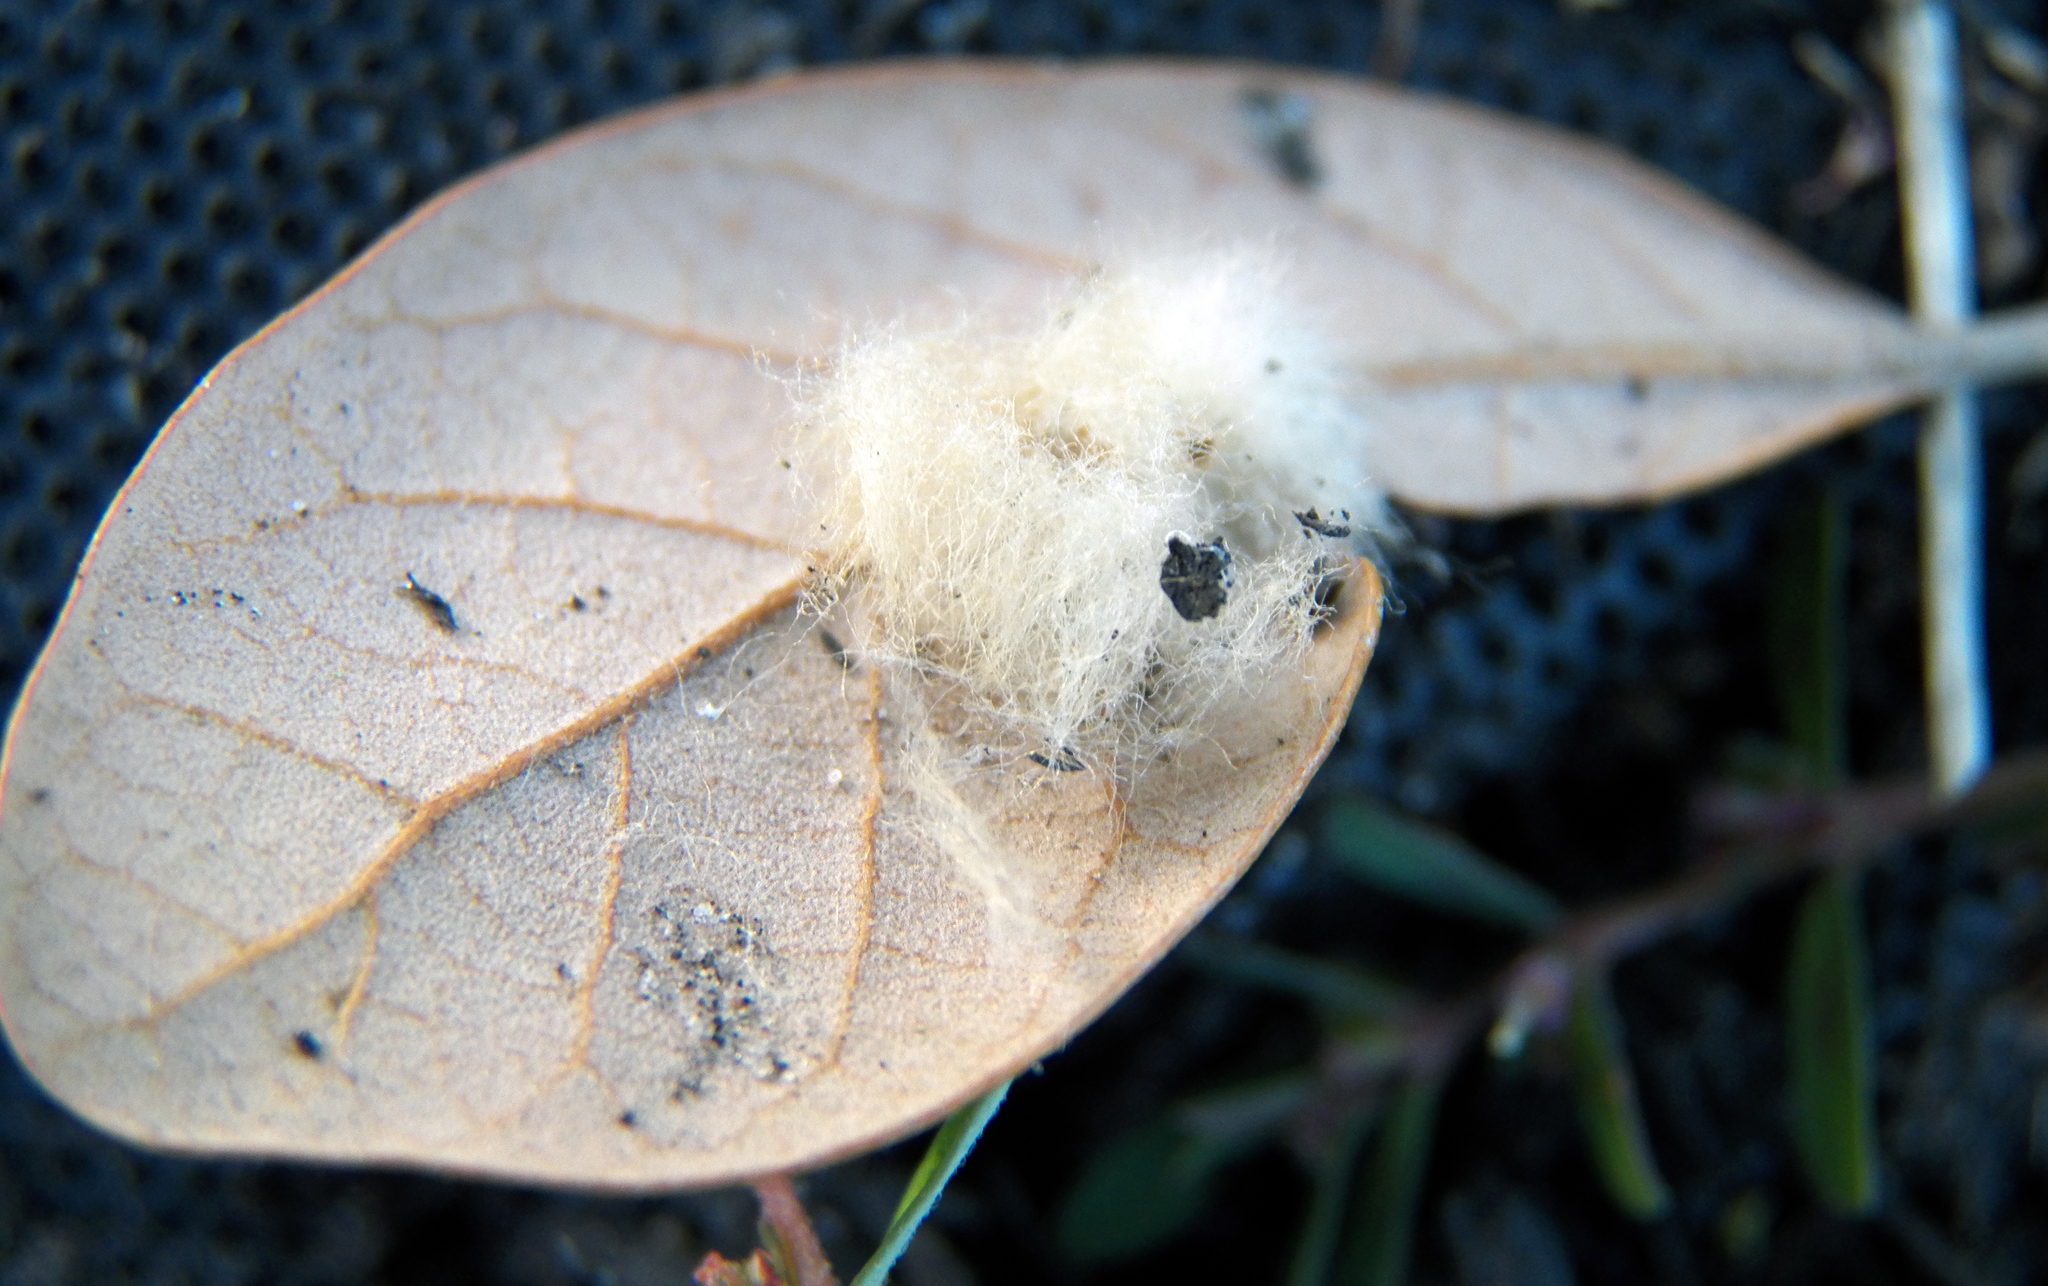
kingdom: Animalia
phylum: Arthropoda
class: Insecta
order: Hymenoptera
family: Cynipidae
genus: Andricus
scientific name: Andricus Druon quercuslanigerum
